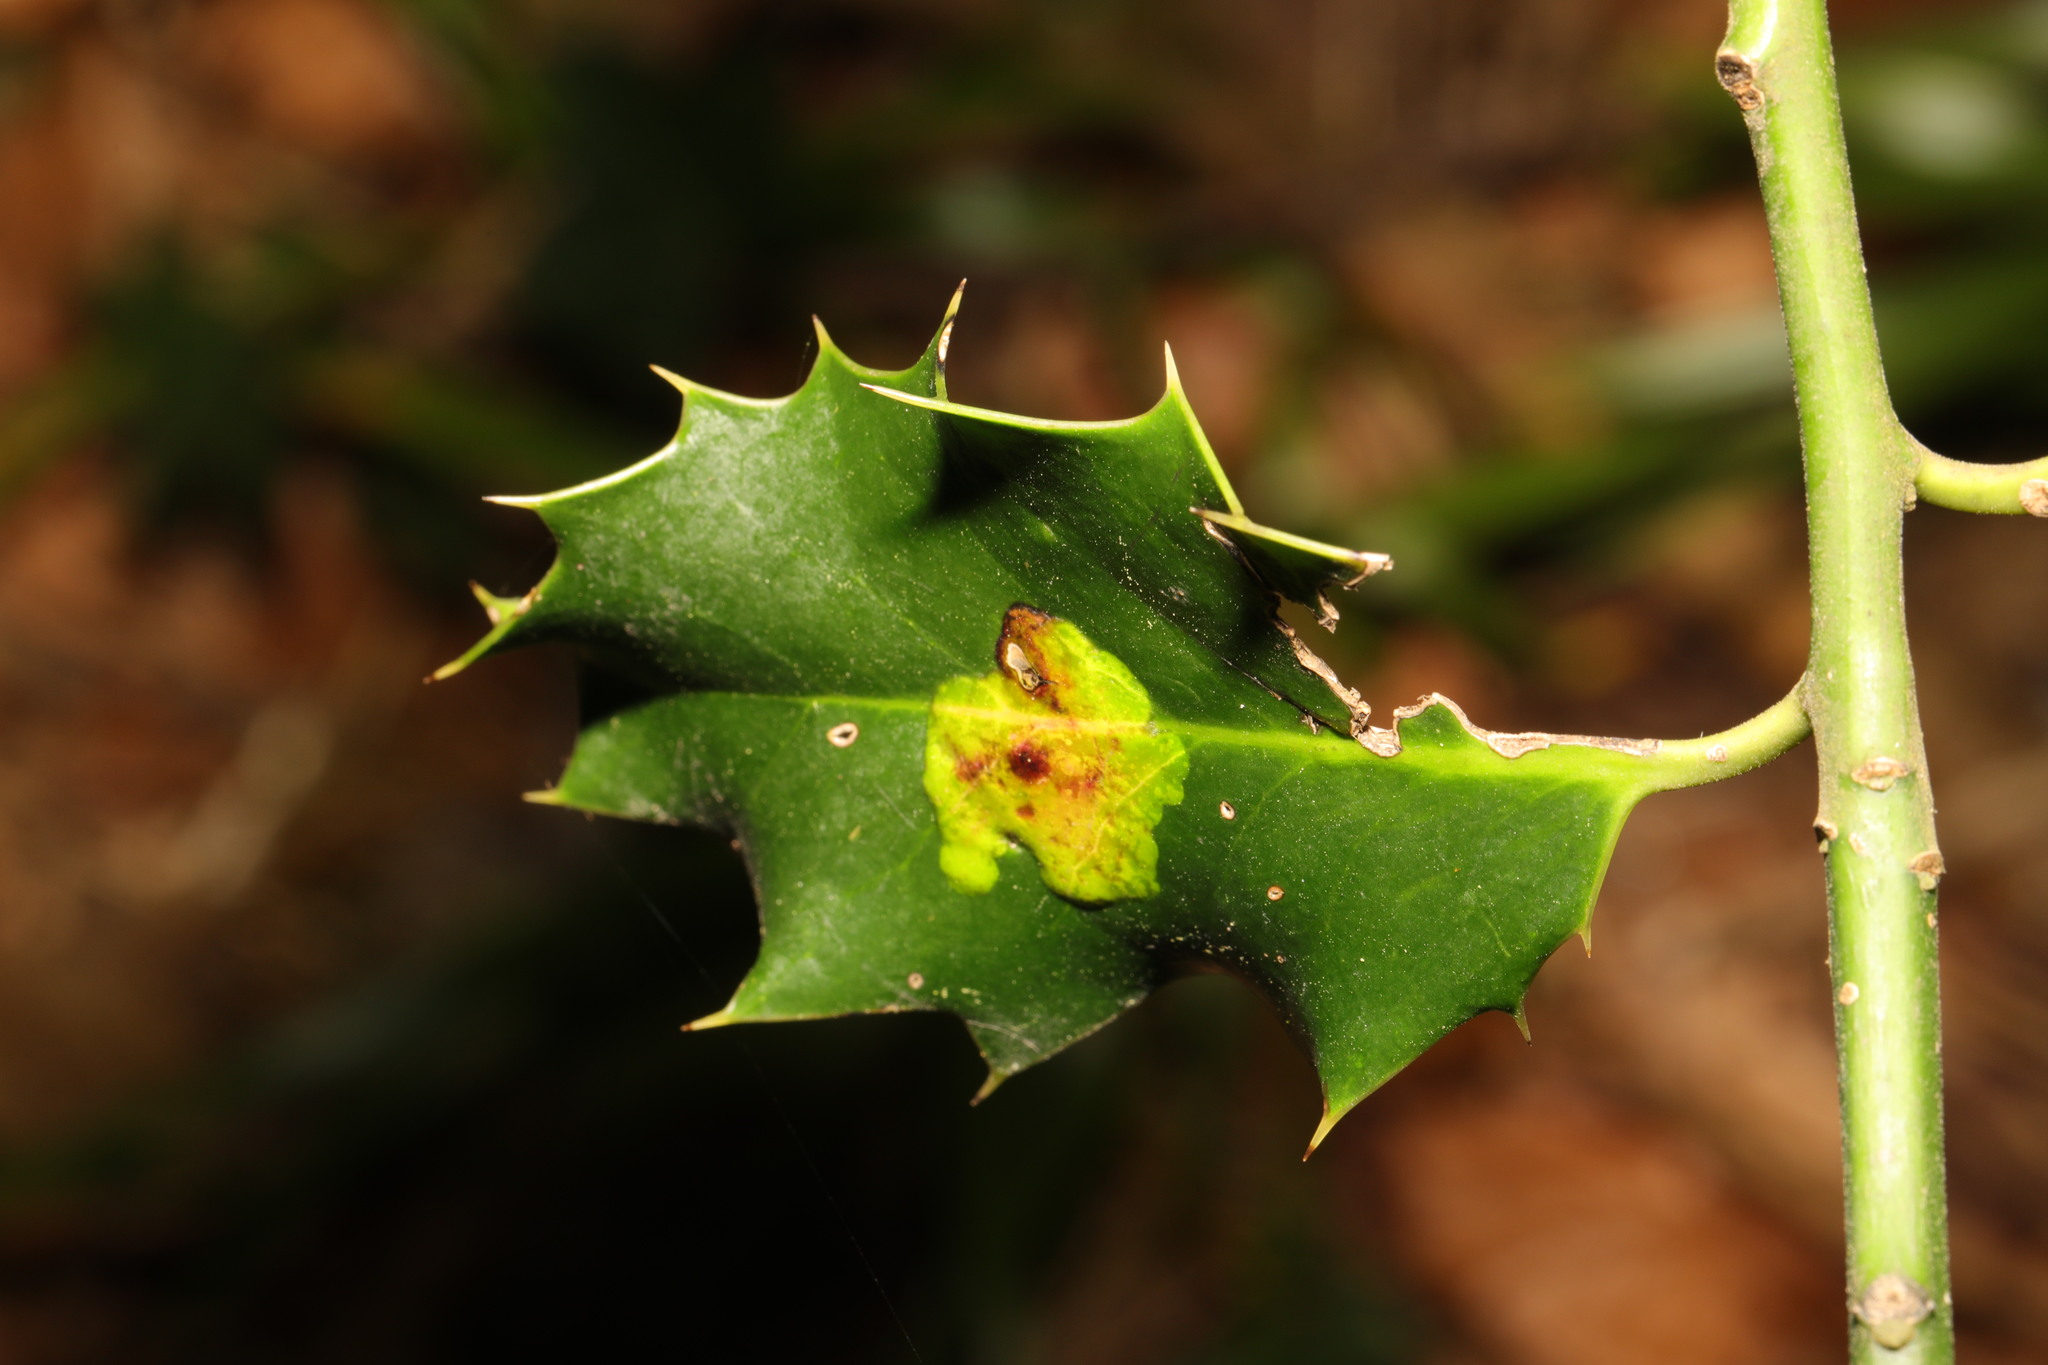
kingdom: Animalia
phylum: Arthropoda
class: Insecta
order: Diptera
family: Agromyzidae
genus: Phytomyza
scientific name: Phytomyza ilicis
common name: Holly leafminer
